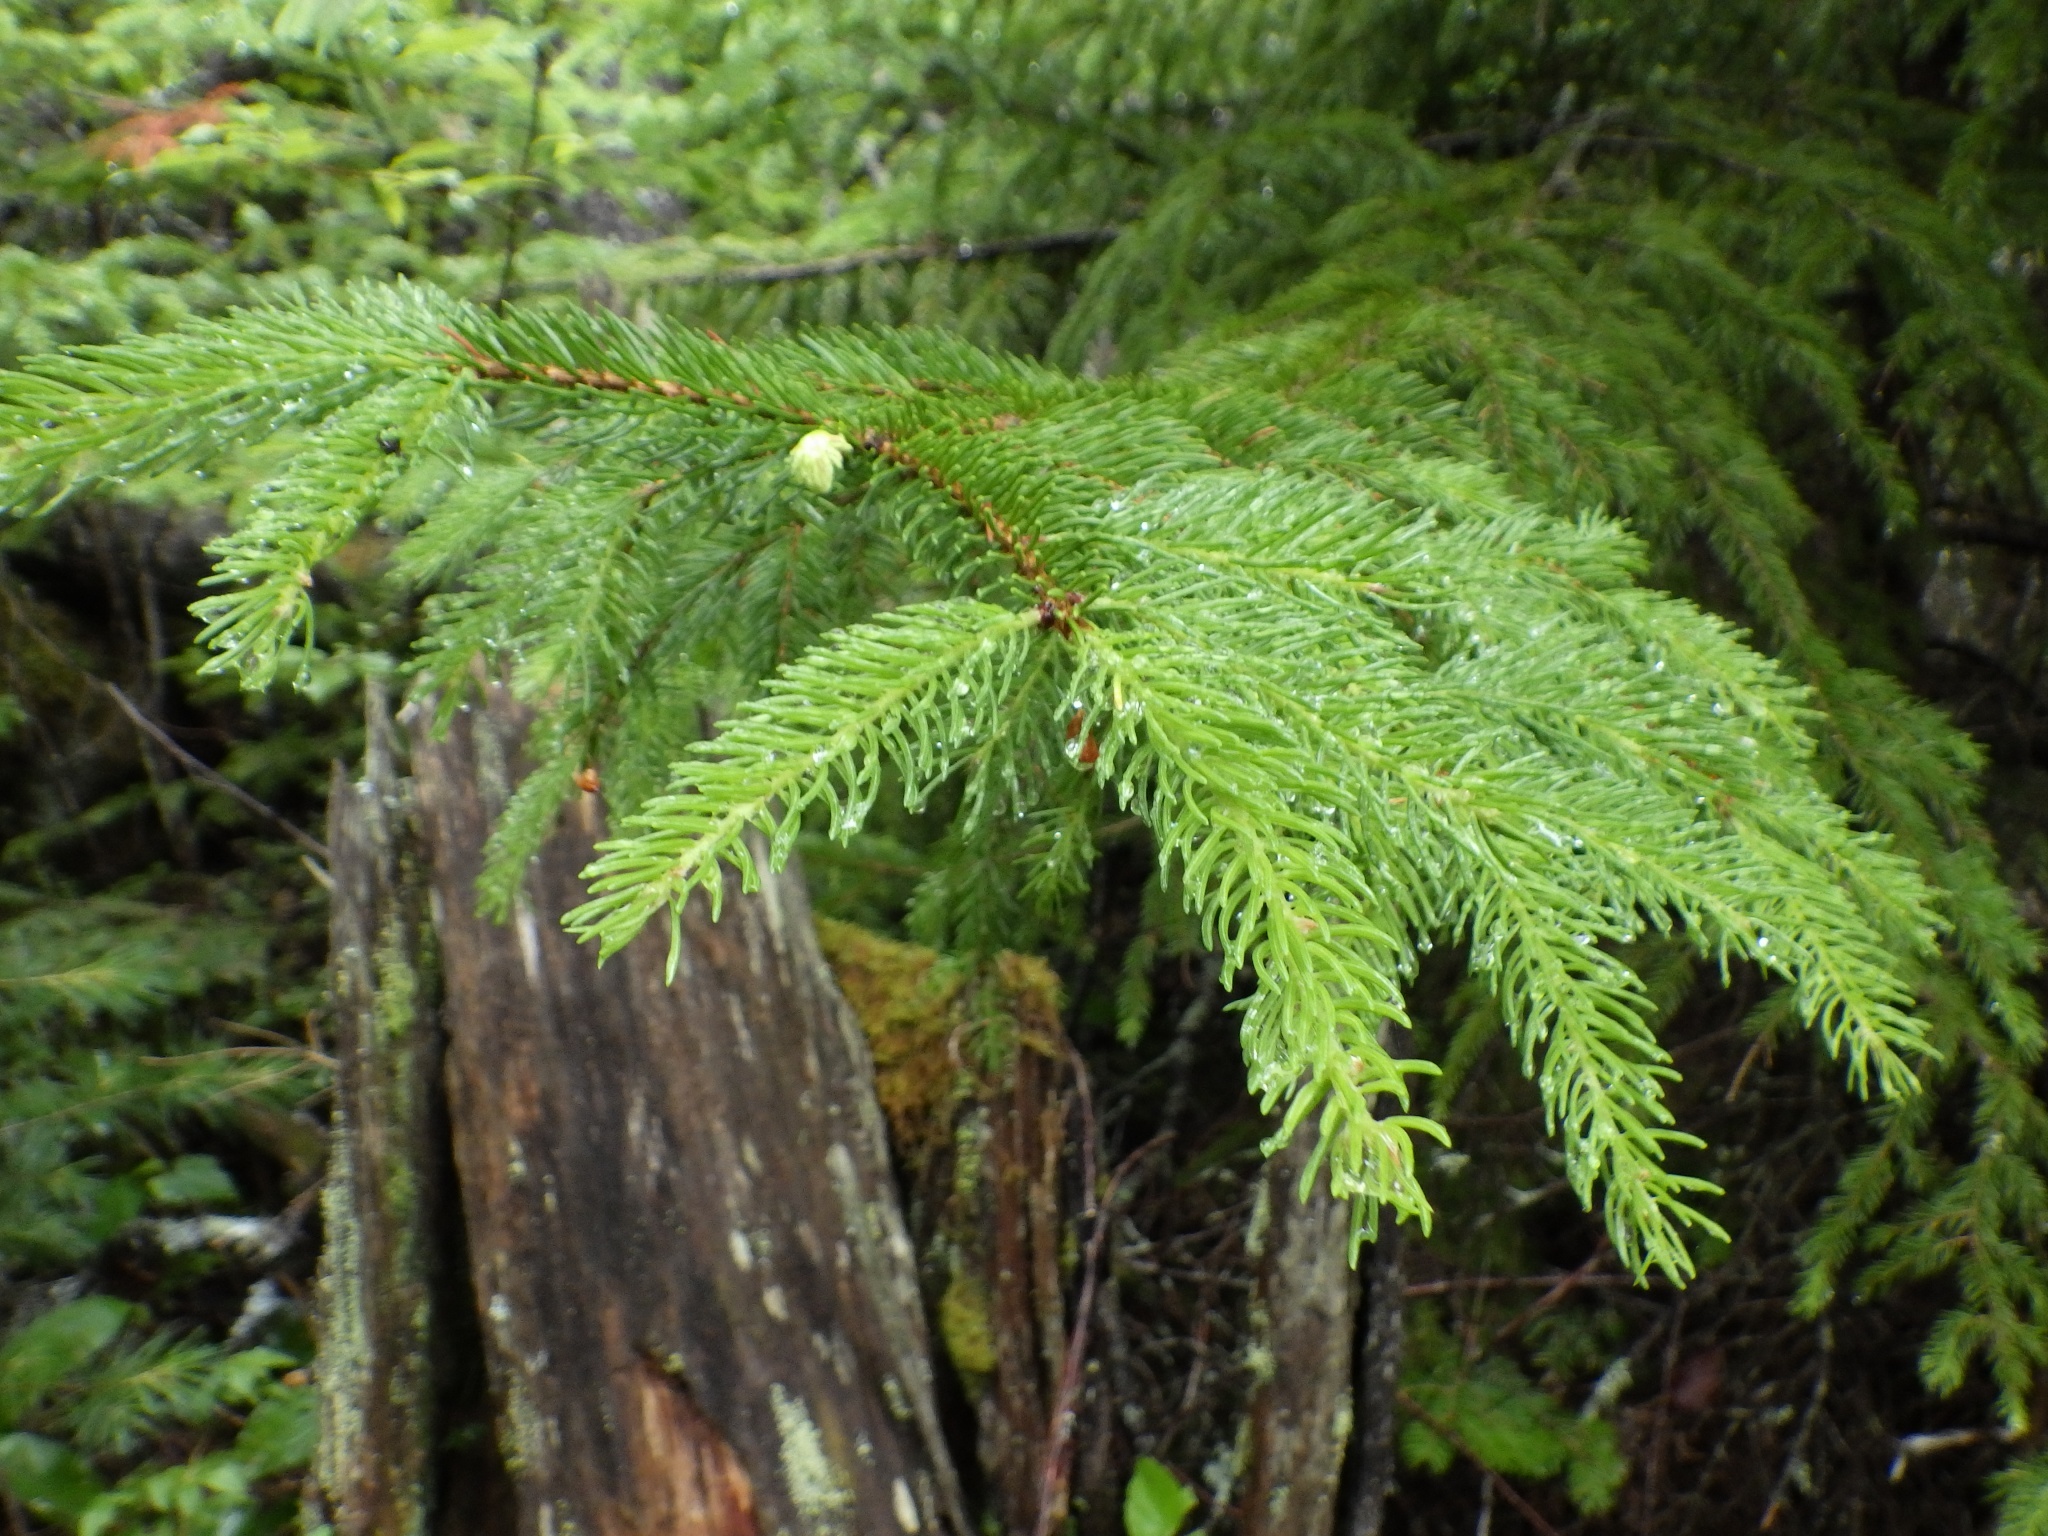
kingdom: Plantae
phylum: Tracheophyta
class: Pinopsida
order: Pinales
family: Pinaceae
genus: Picea
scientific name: Picea rubens
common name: Red spruce
